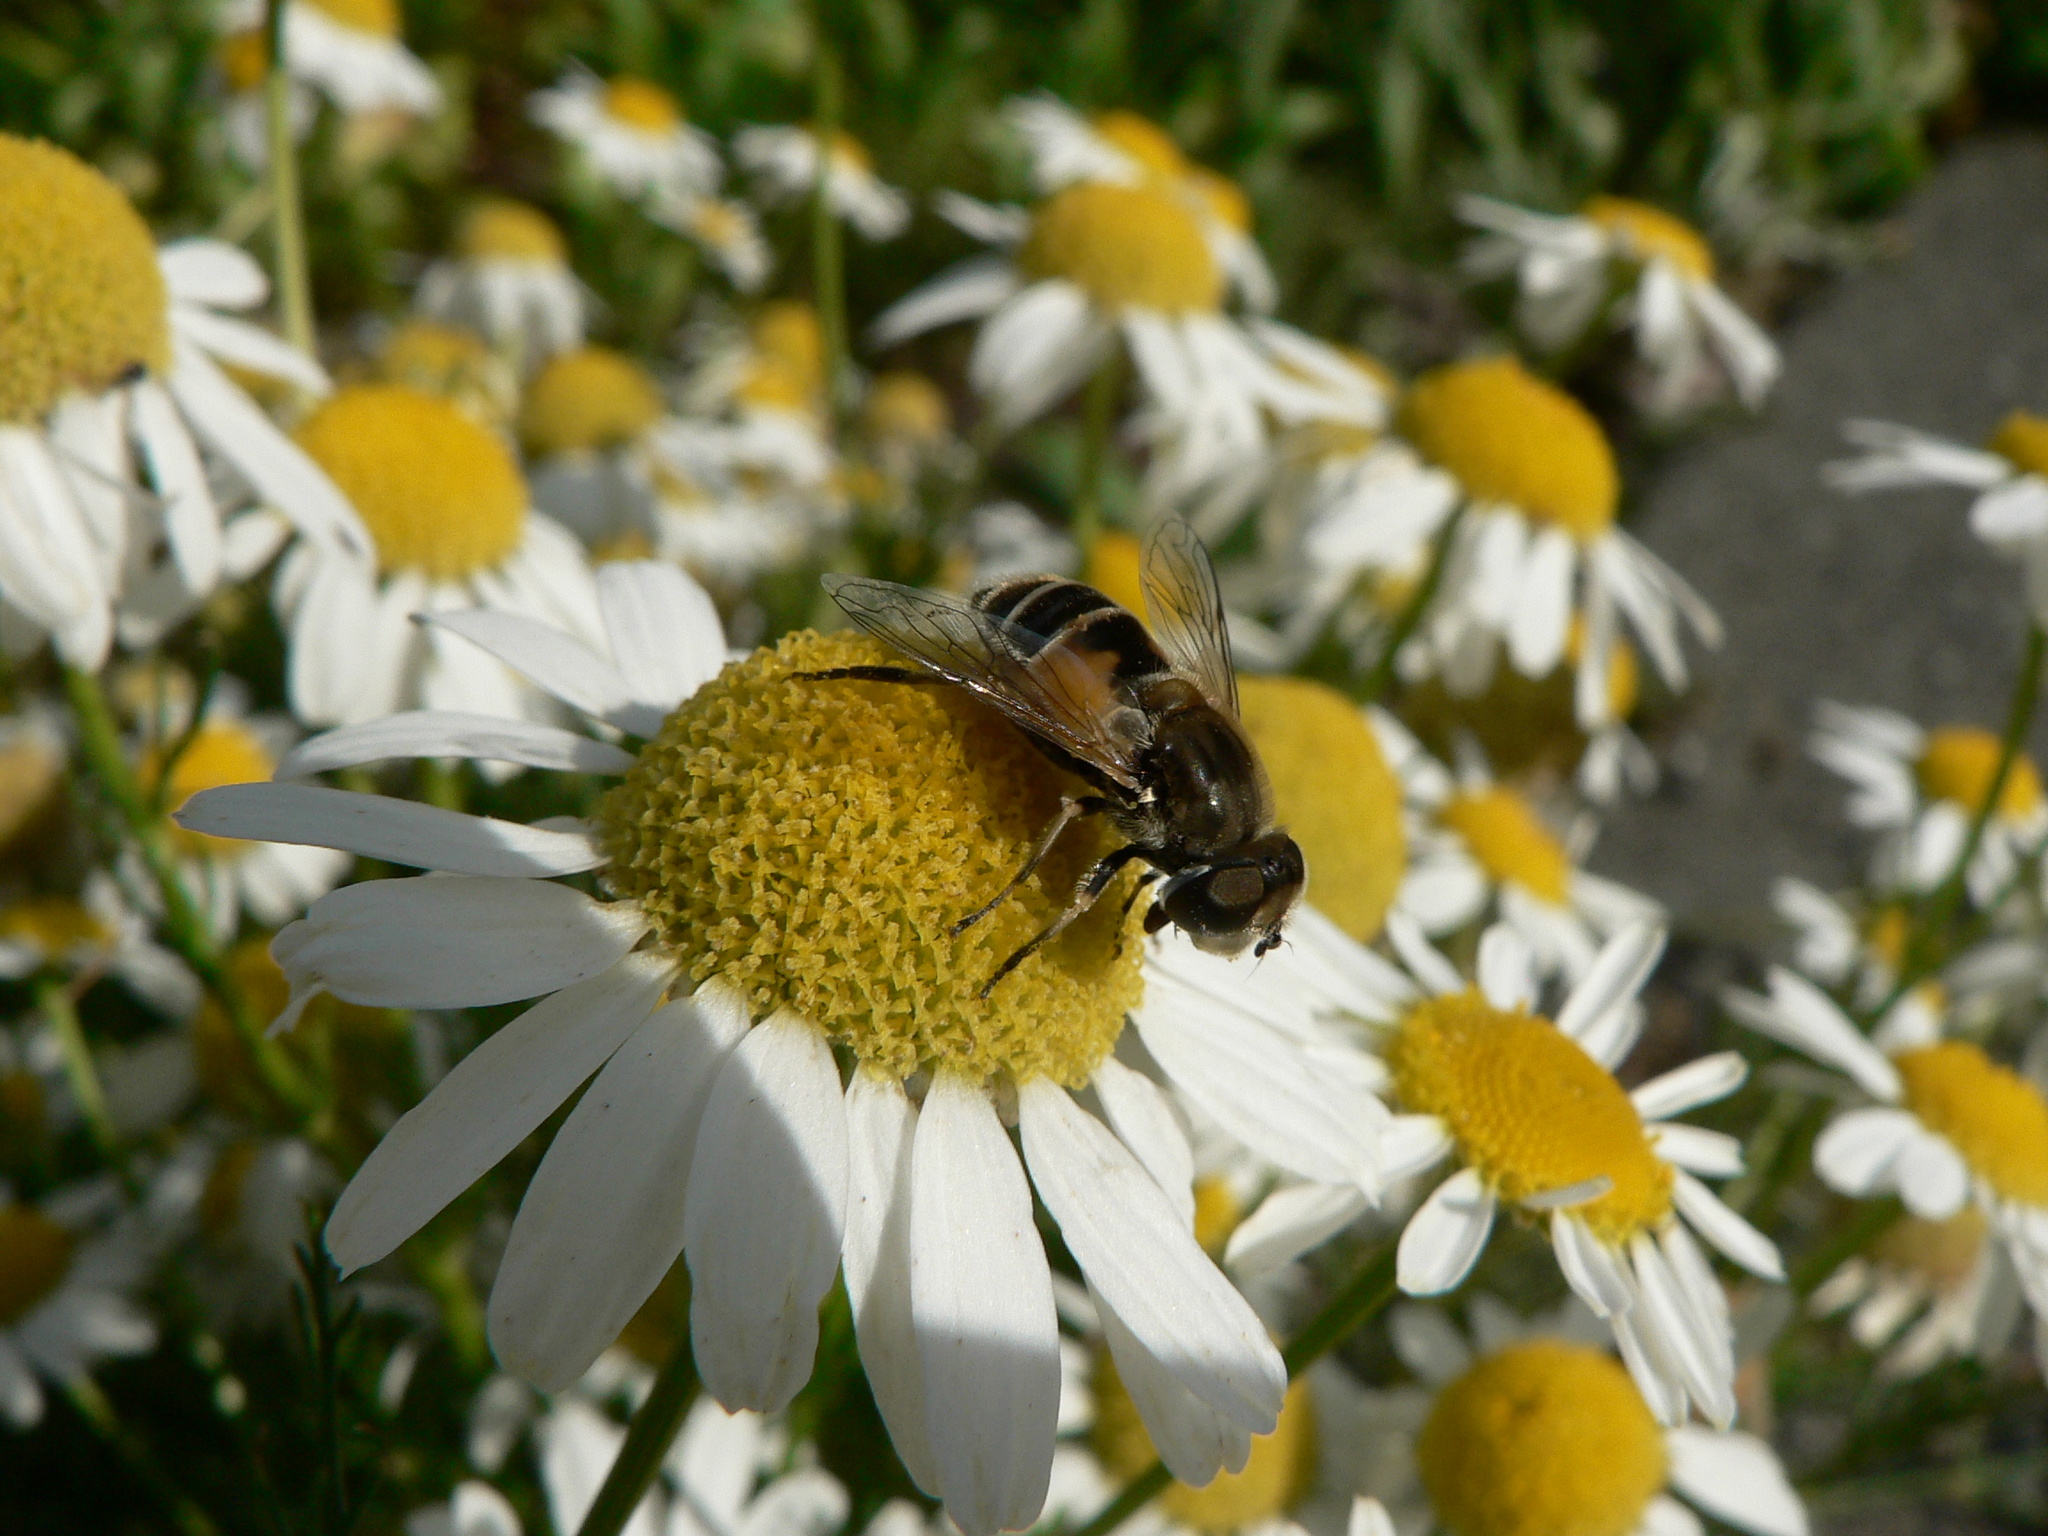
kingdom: Animalia
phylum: Arthropoda
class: Insecta
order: Diptera
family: Syrphidae
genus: Eristalis
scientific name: Eristalis arbustorum
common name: Hover fly
